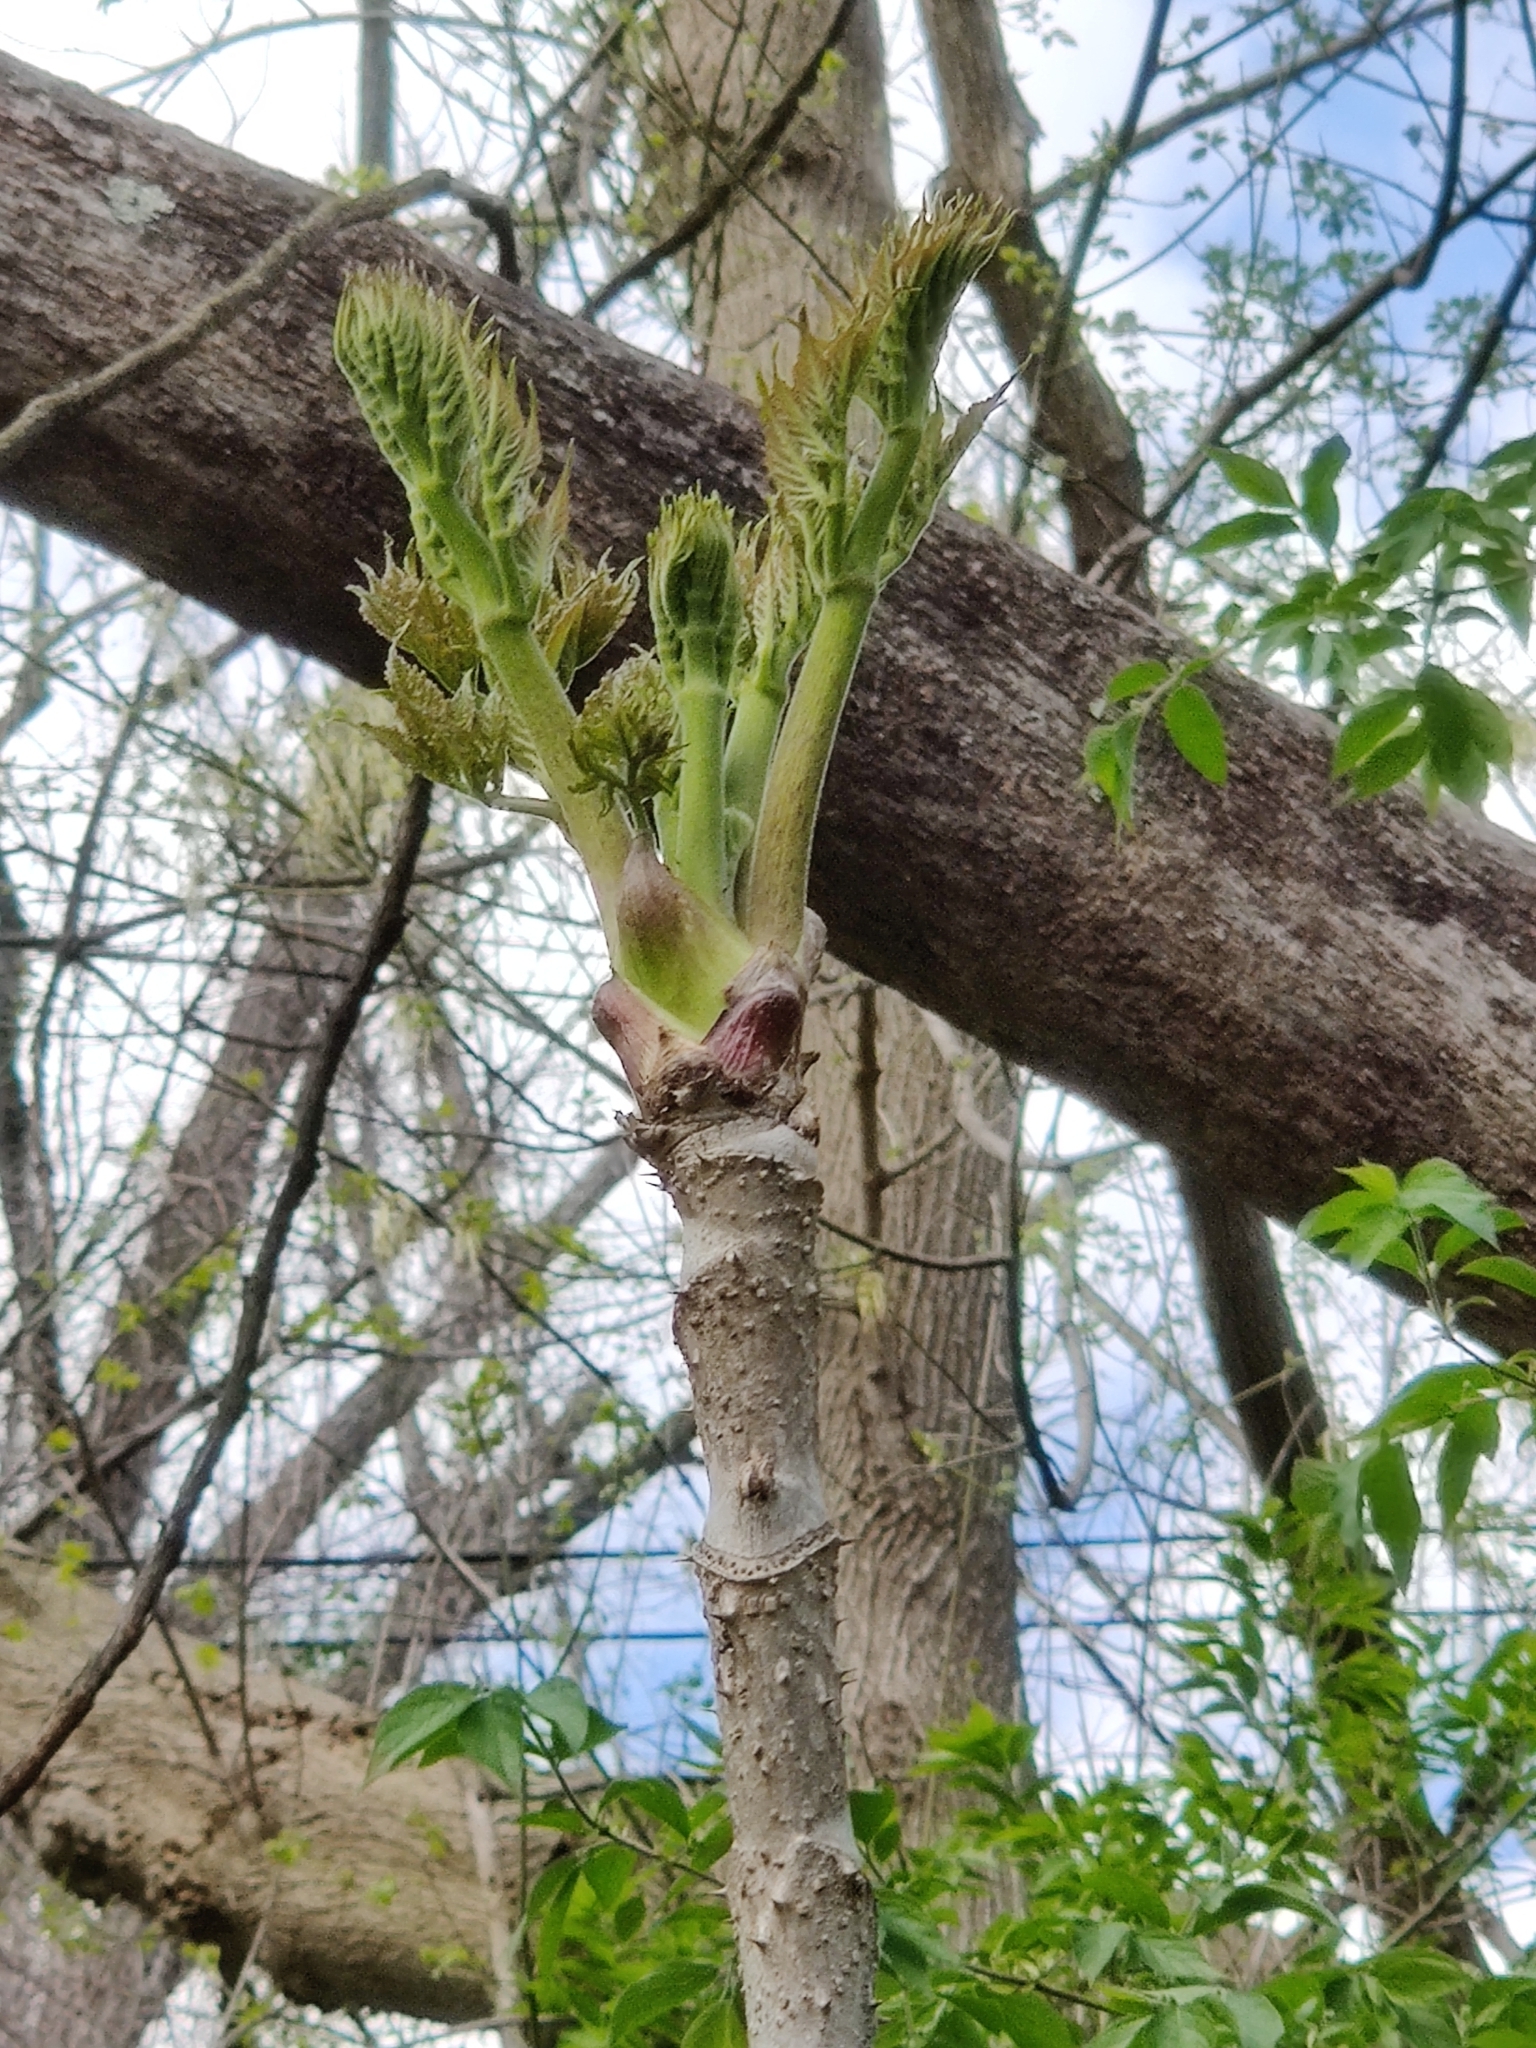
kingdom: Plantae
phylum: Tracheophyta
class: Magnoliopsida
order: Apiales
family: Araliaceae
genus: Aralia
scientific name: Aralia elata
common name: Japanese angelica-tree
